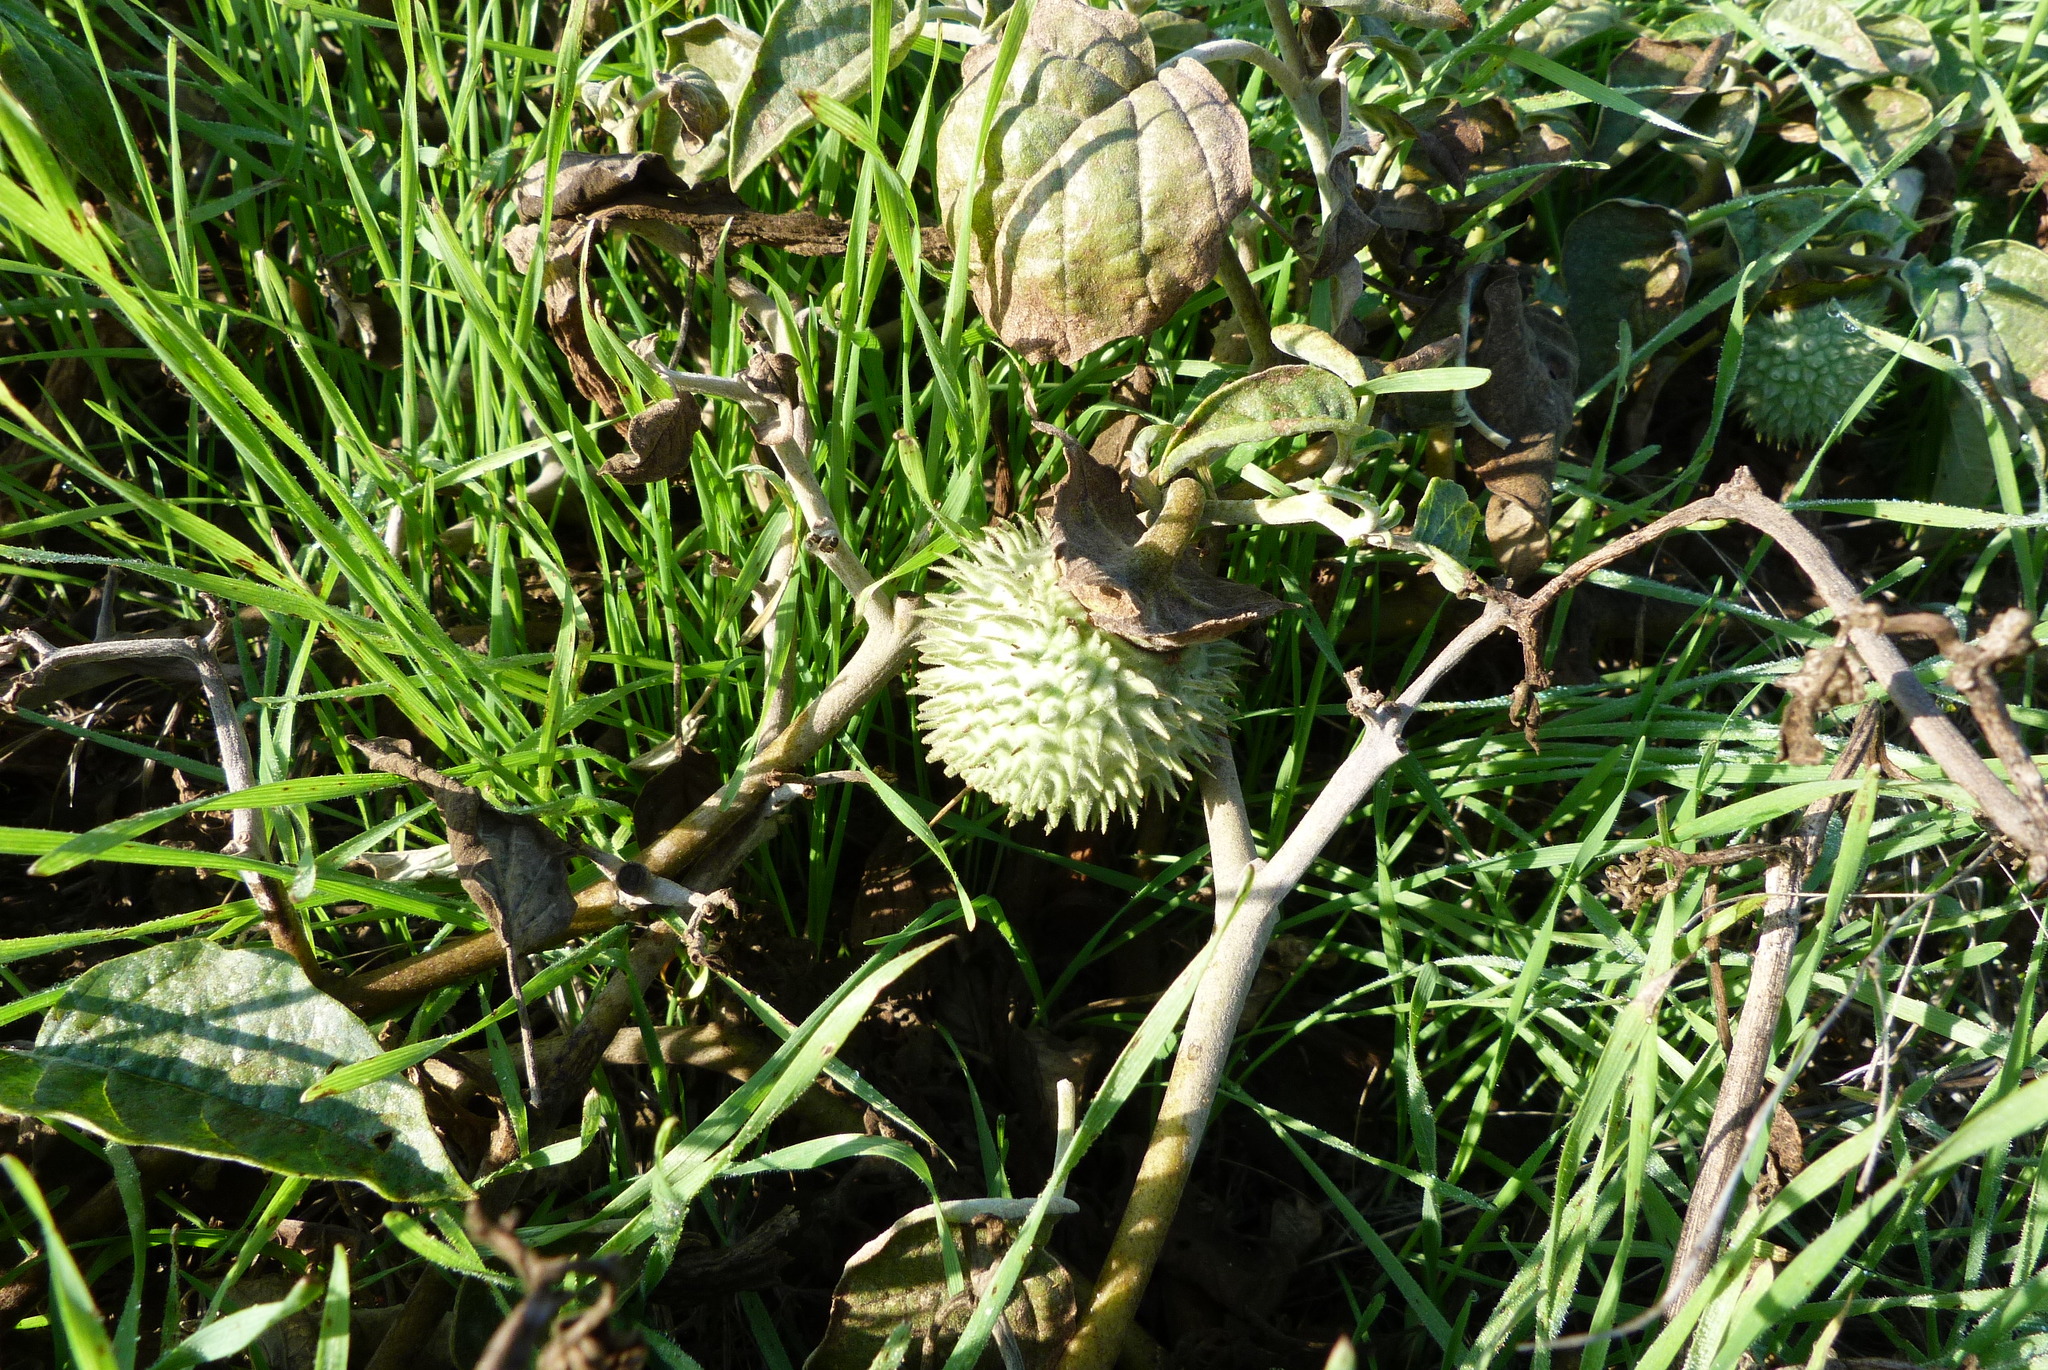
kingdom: Plantae
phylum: Tracheophyta
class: Magnoliopsida
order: Solanales
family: Solanaceae
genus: Datura
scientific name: Datura wrightii
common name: Sacred thorn-apple
